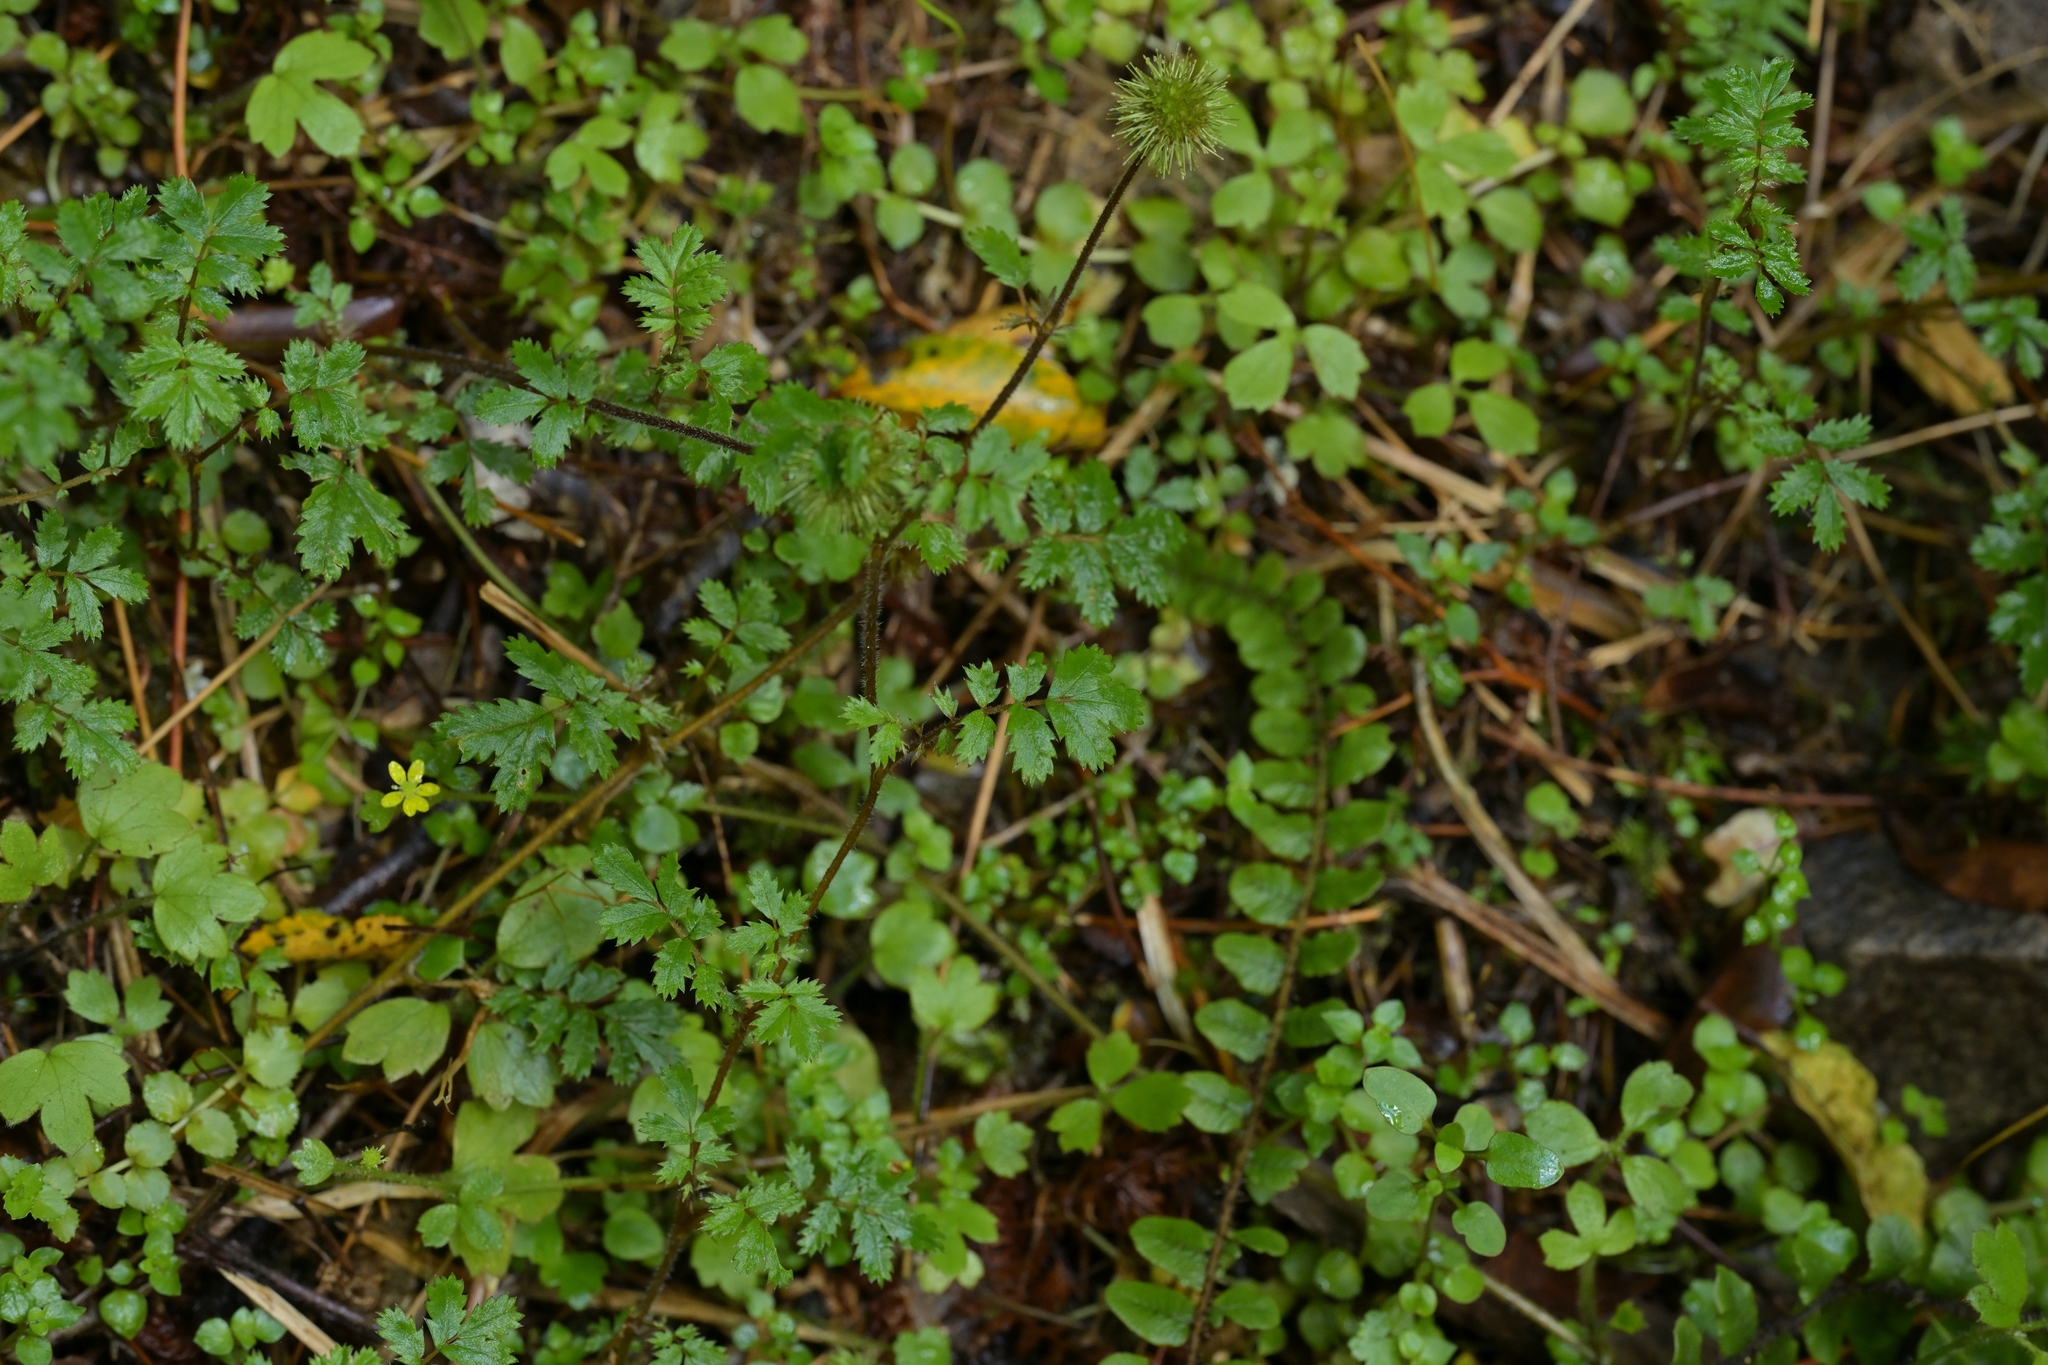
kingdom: Plantae
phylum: Tracheophyta
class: Magnoliopsida
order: Rosales
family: Rosaceae
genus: Acaena
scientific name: Acaena anserinifolia
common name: Bronze pirri-pirri-bur
